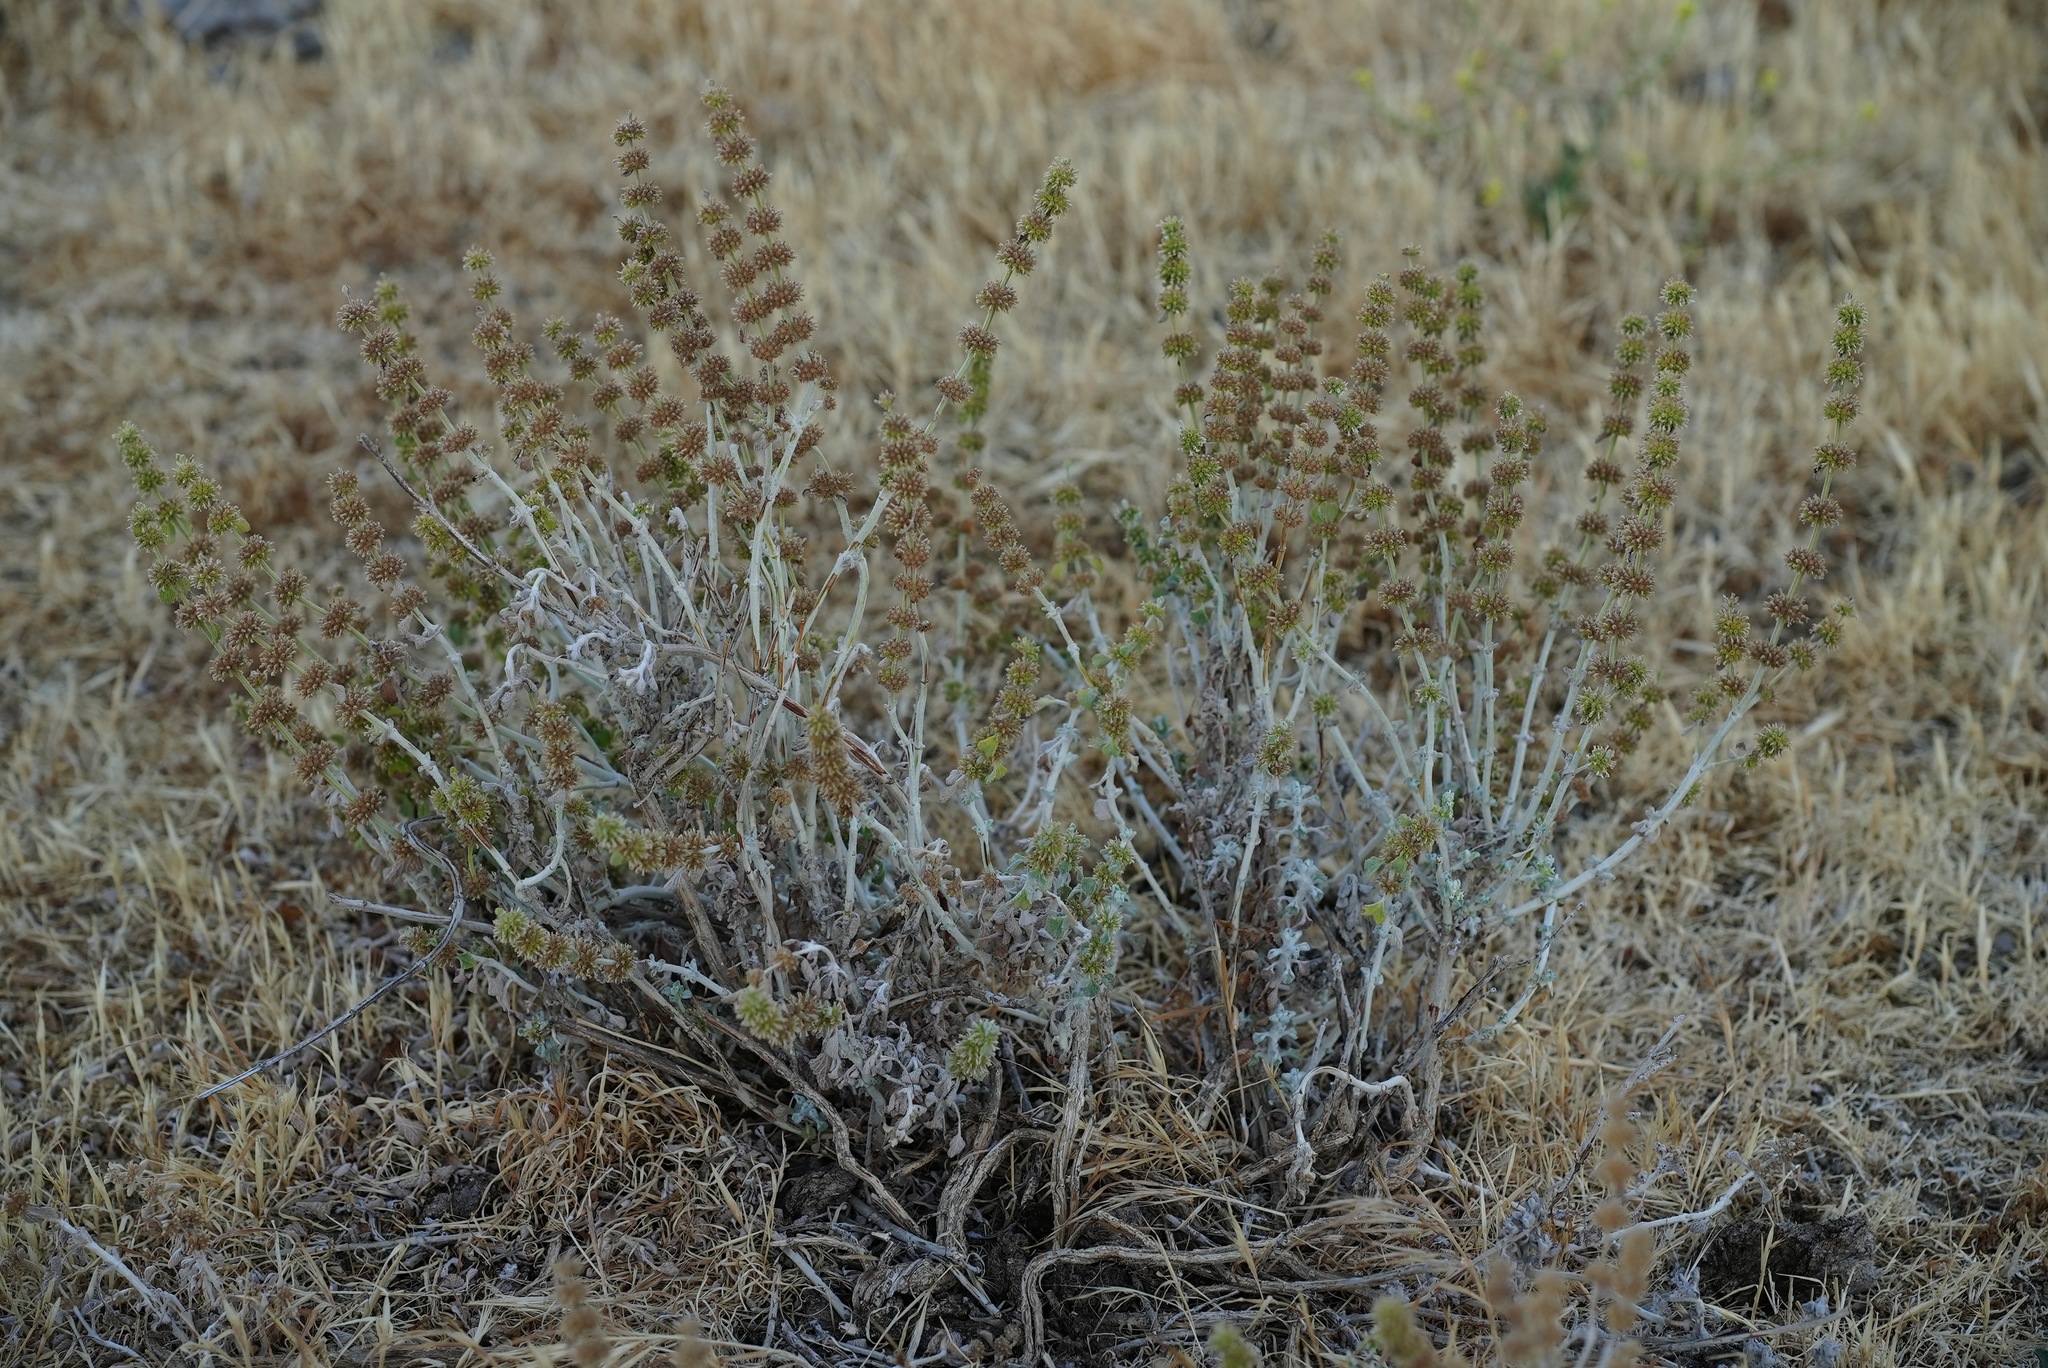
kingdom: Plantae
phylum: Tracheophyta
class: Magnoliopsida
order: Lamiales
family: Lamiaceae
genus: Marrubium
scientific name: Marrubium vulgare
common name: Horehound
